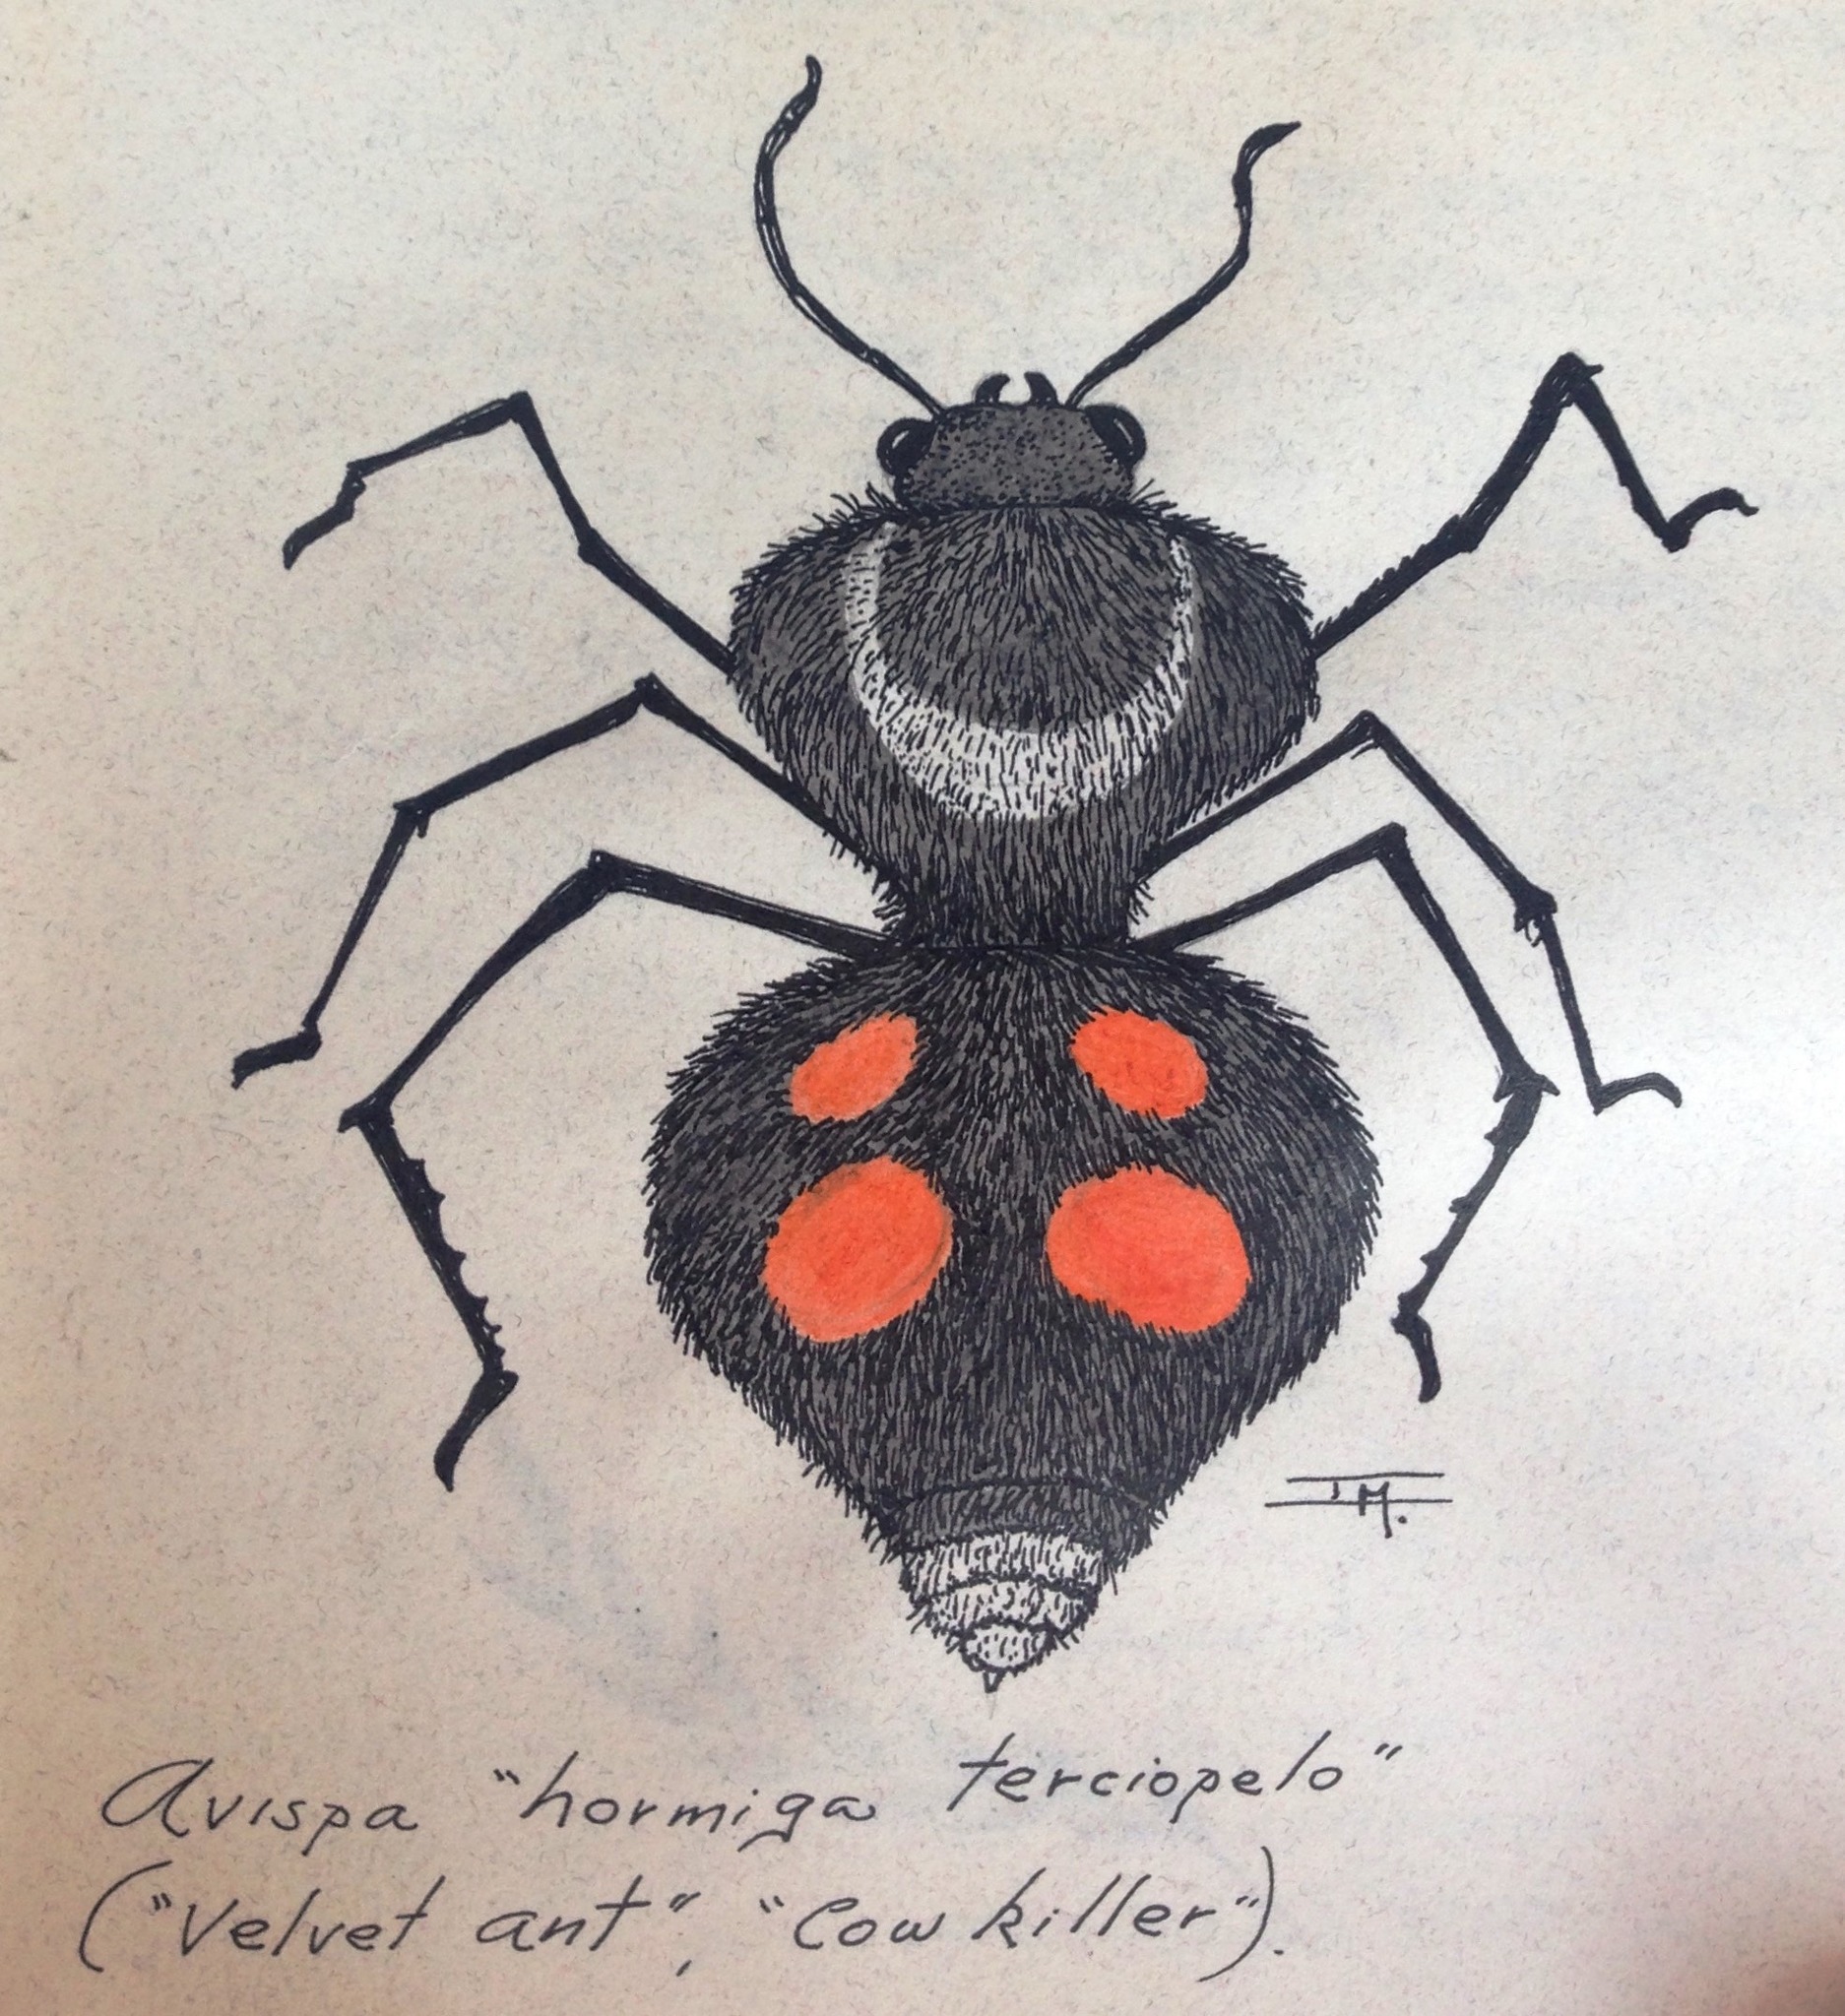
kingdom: Animalia
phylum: Arthropoda
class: Insecta
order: Hymenoptera
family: Mutillidae
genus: Dasymutilla
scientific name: Dasymutilla pulchra
